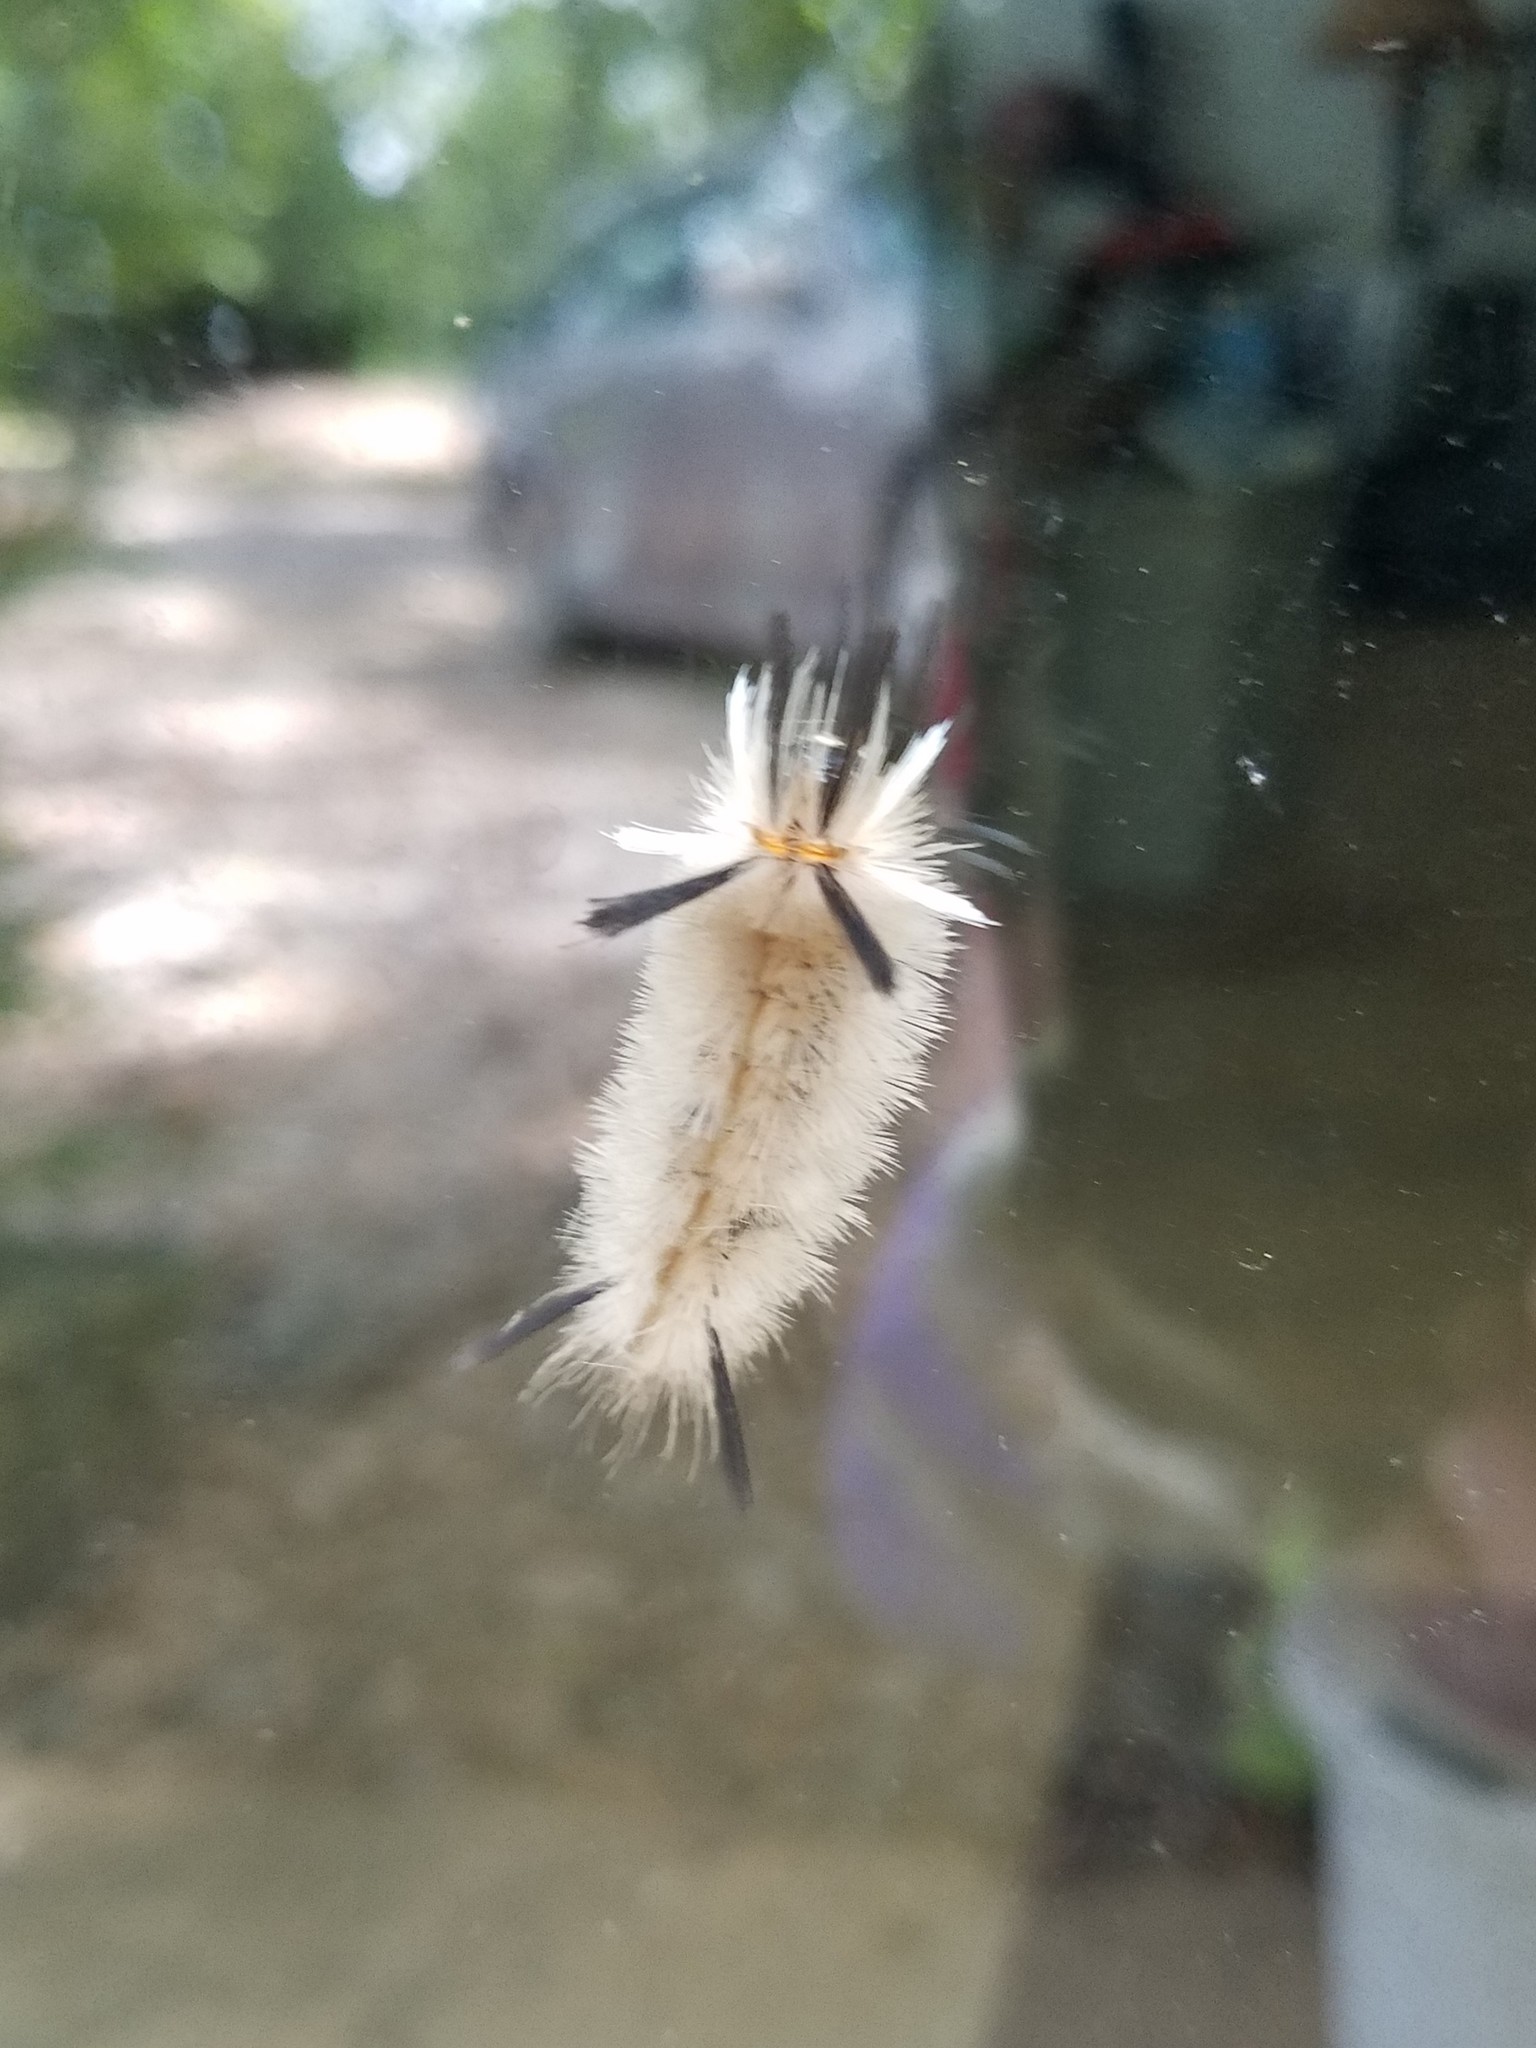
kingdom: Animalia
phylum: Arthropoda
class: Insecta
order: Lepidoptera
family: Erebidae
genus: Halysidota
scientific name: Halysidota tessellaris
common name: Banded tussock moth
